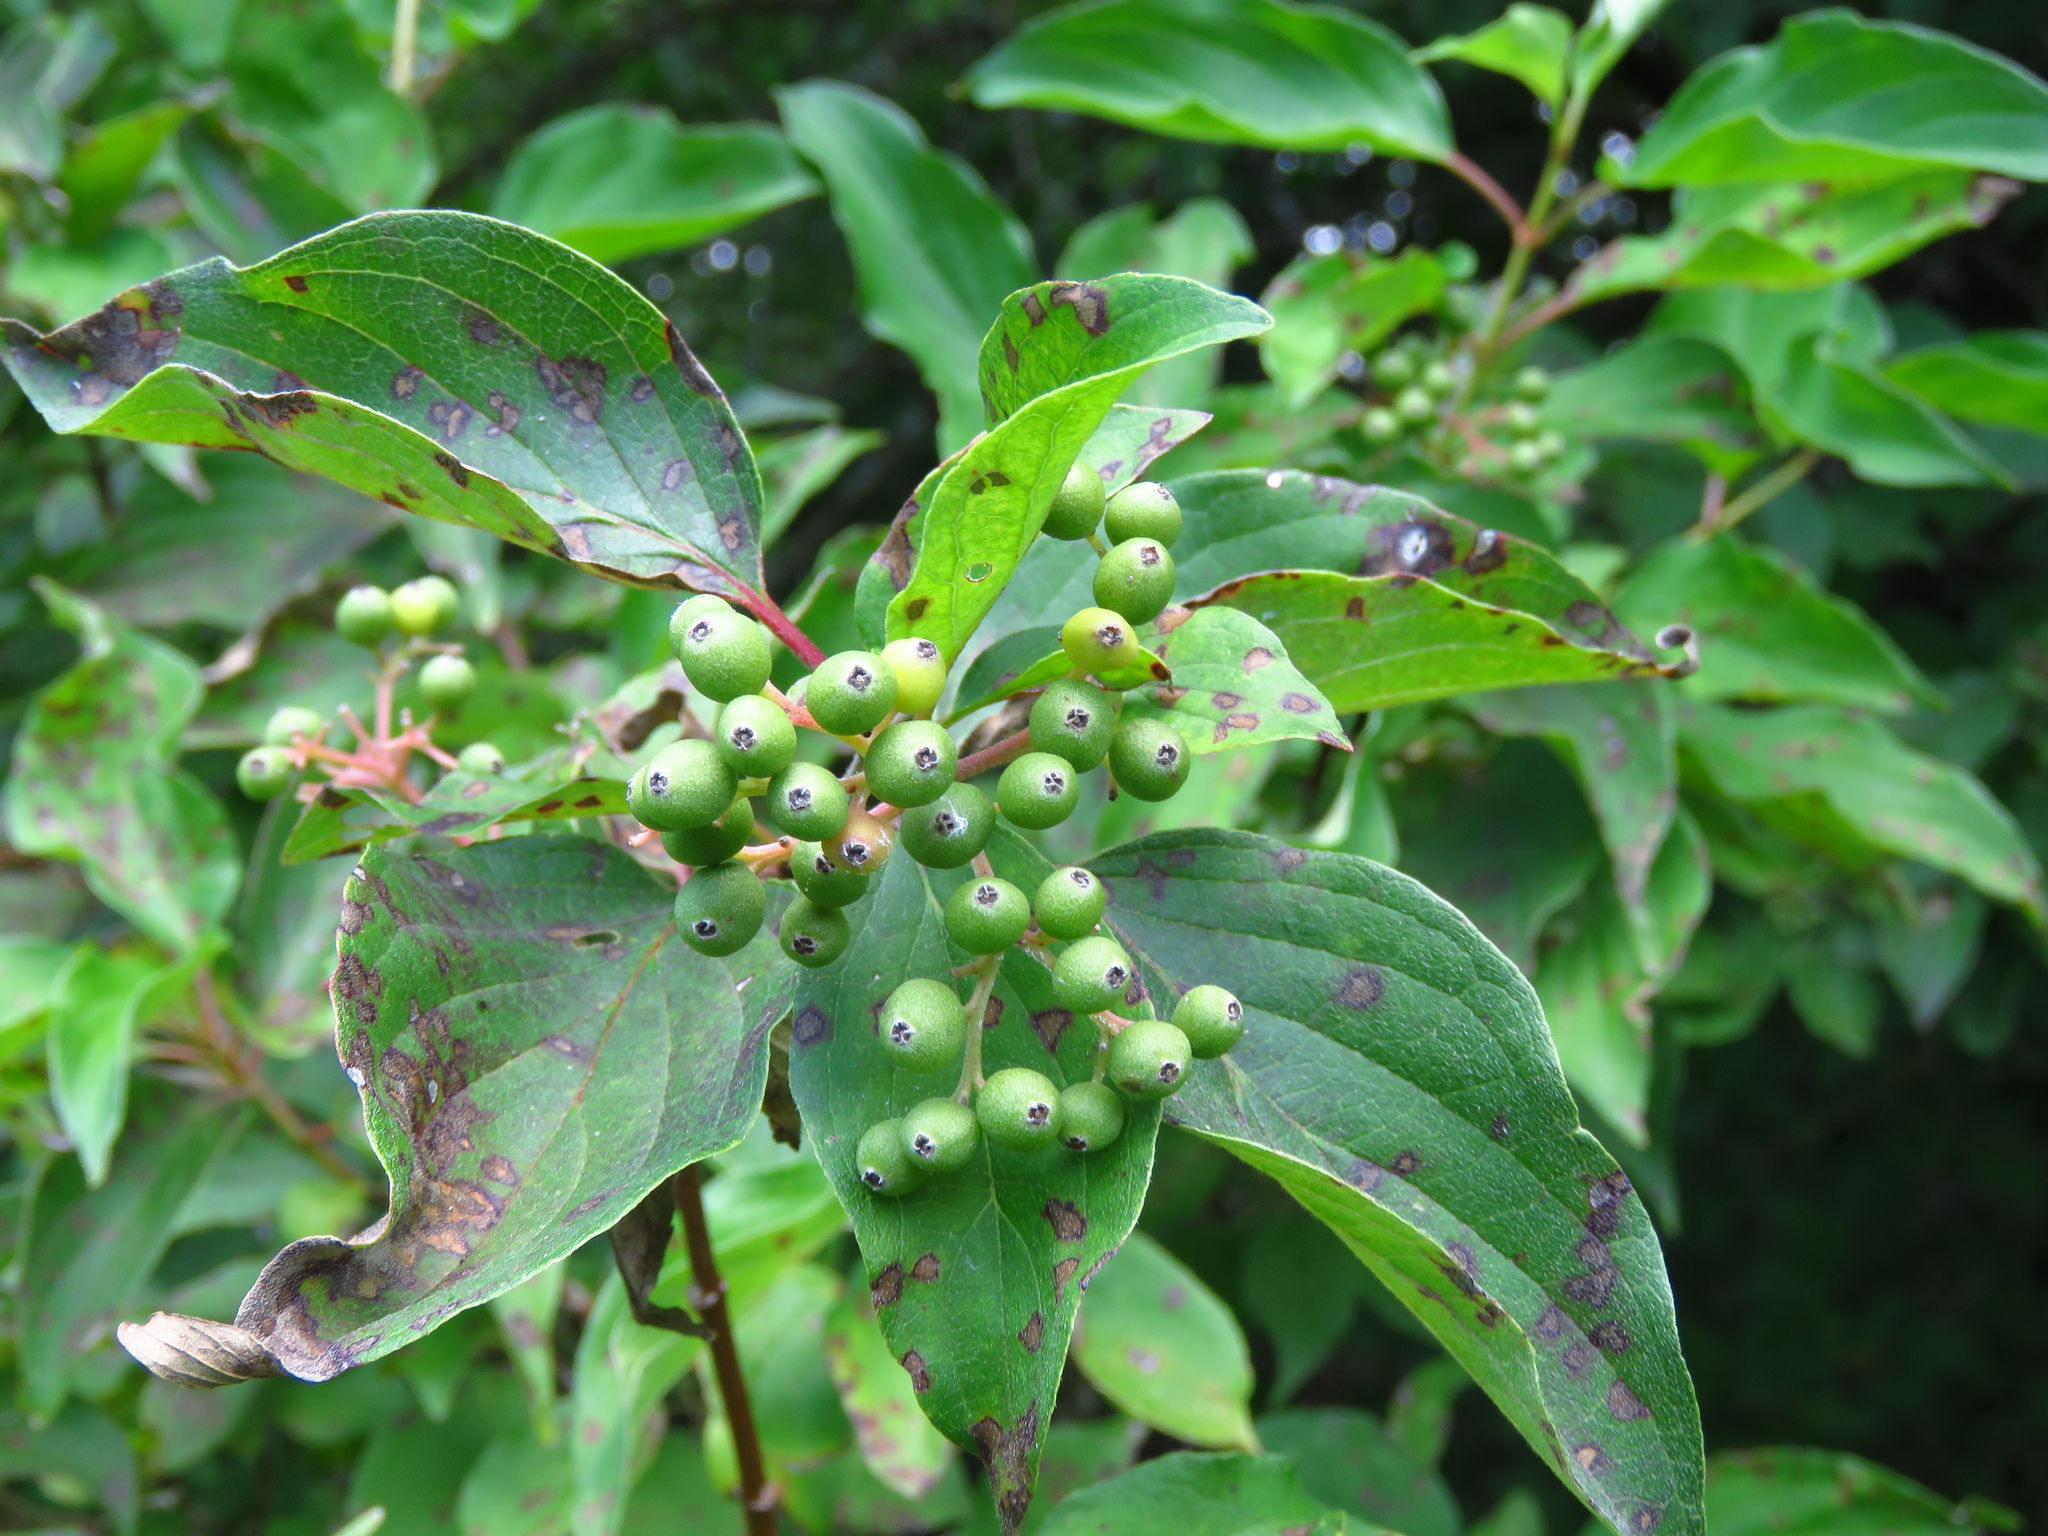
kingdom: Plantae
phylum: Tracheophyta
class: Magnoliopsida
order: Cornales
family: Cornaceae
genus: Cornus
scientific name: Cornus drummondii
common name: Rough-leaf dogwood
